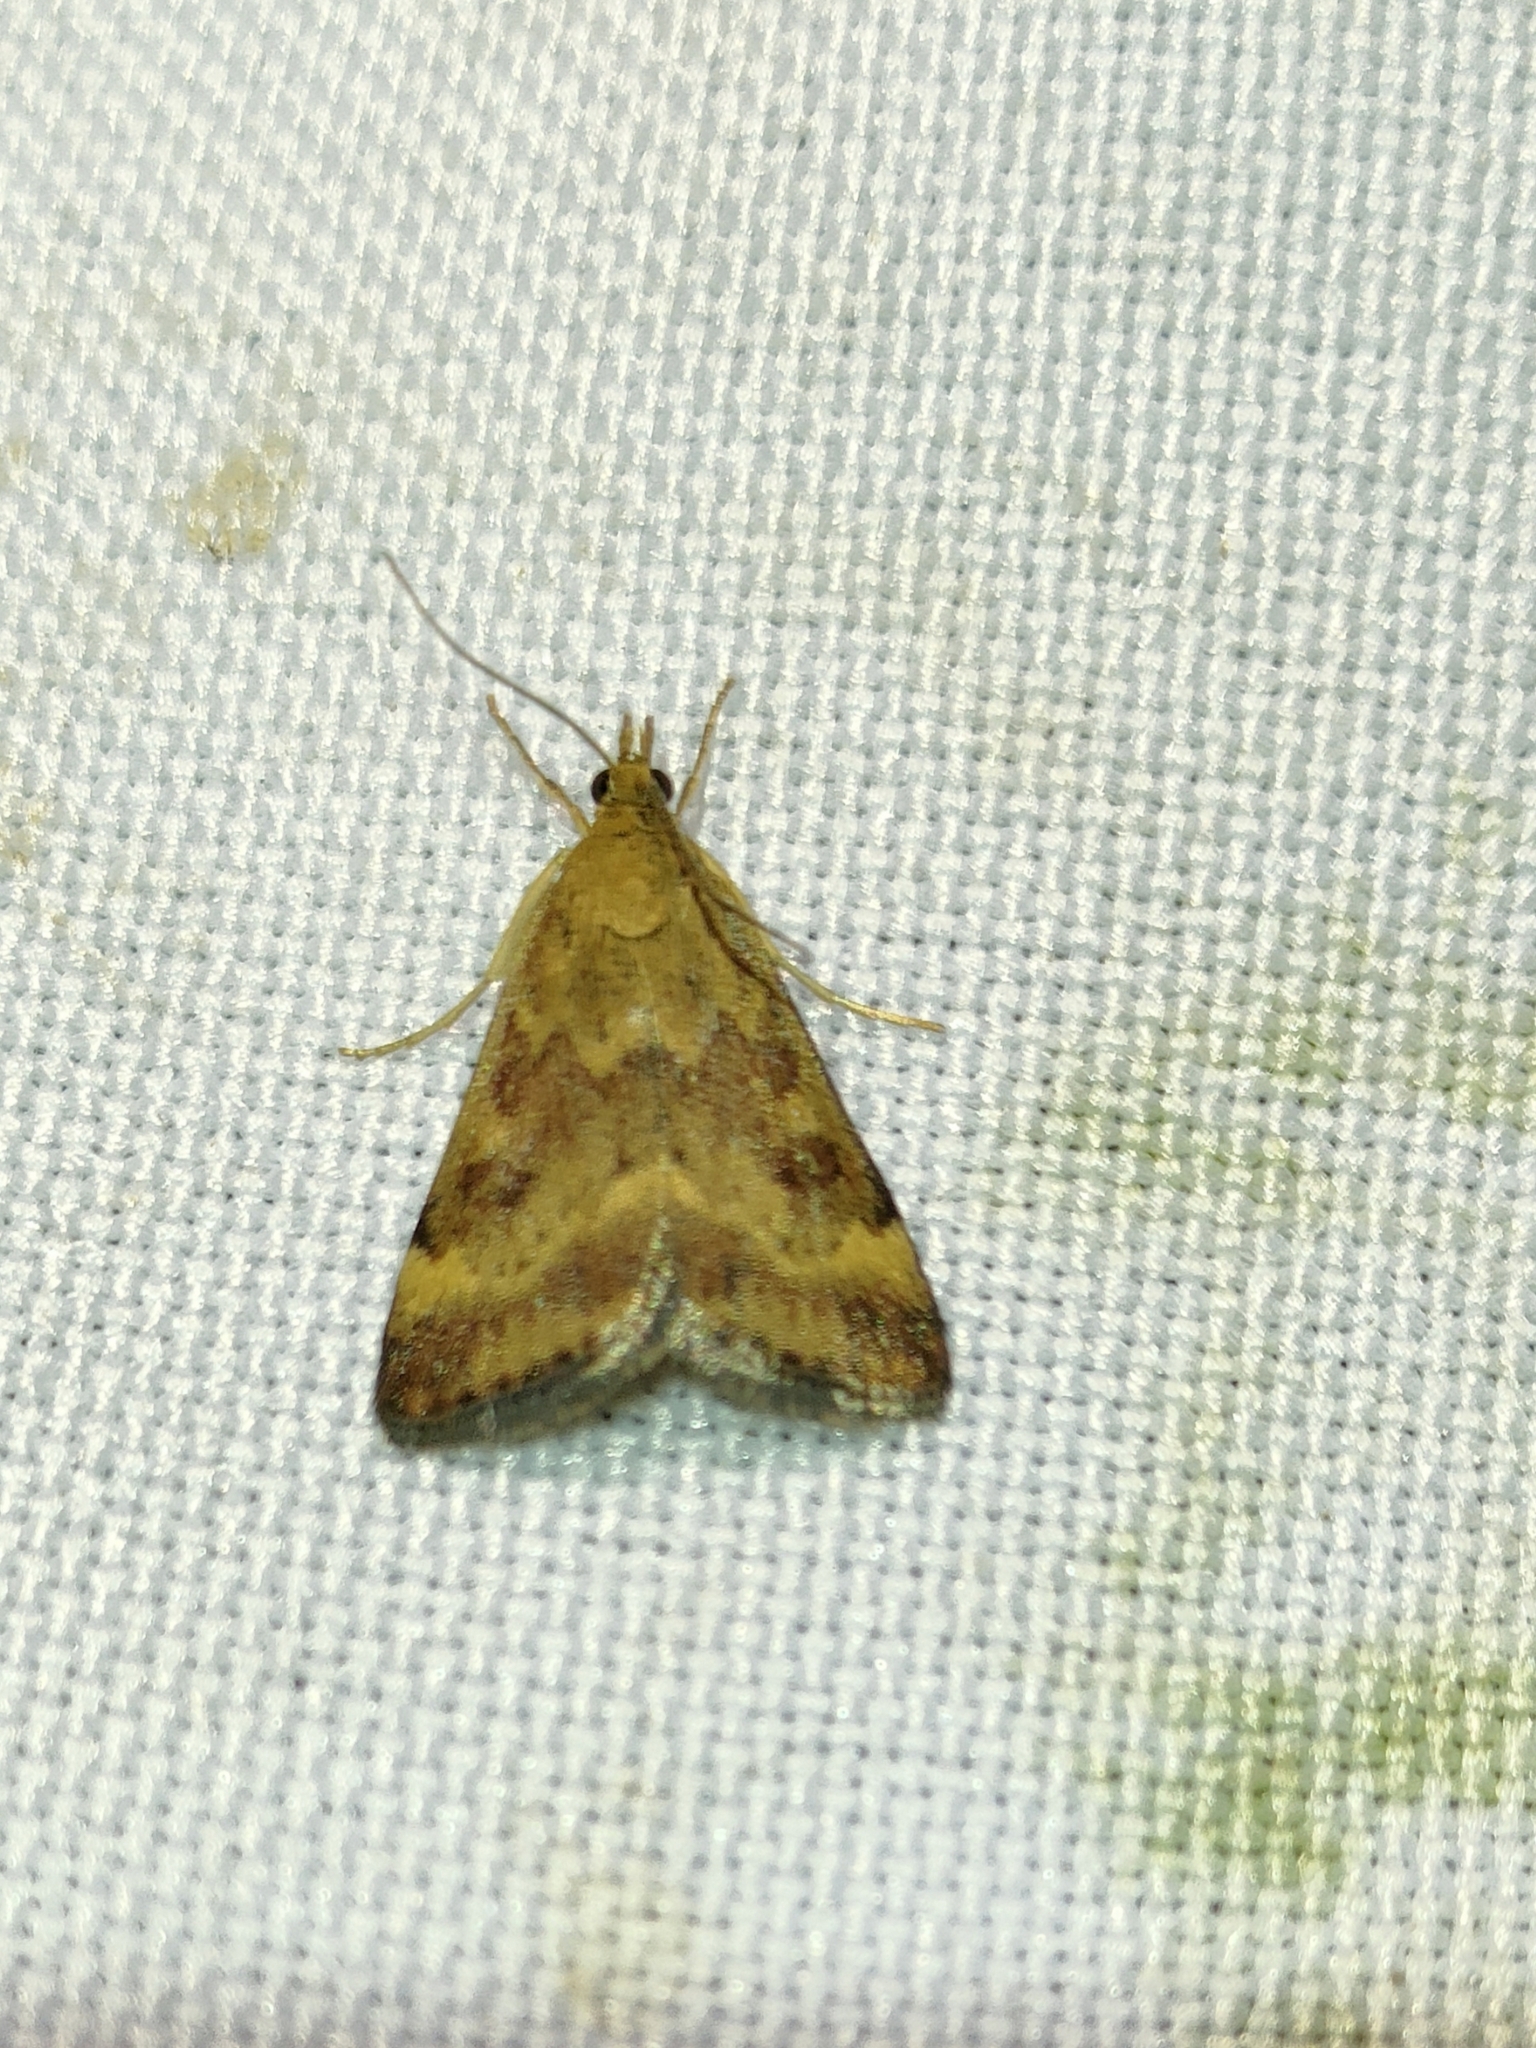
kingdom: Animalia
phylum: Arthropoda
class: Insecta
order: Lepidoptera
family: Crambidae
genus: Pyrausta
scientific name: Pyrausta despicata
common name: Straw-barred pearl
